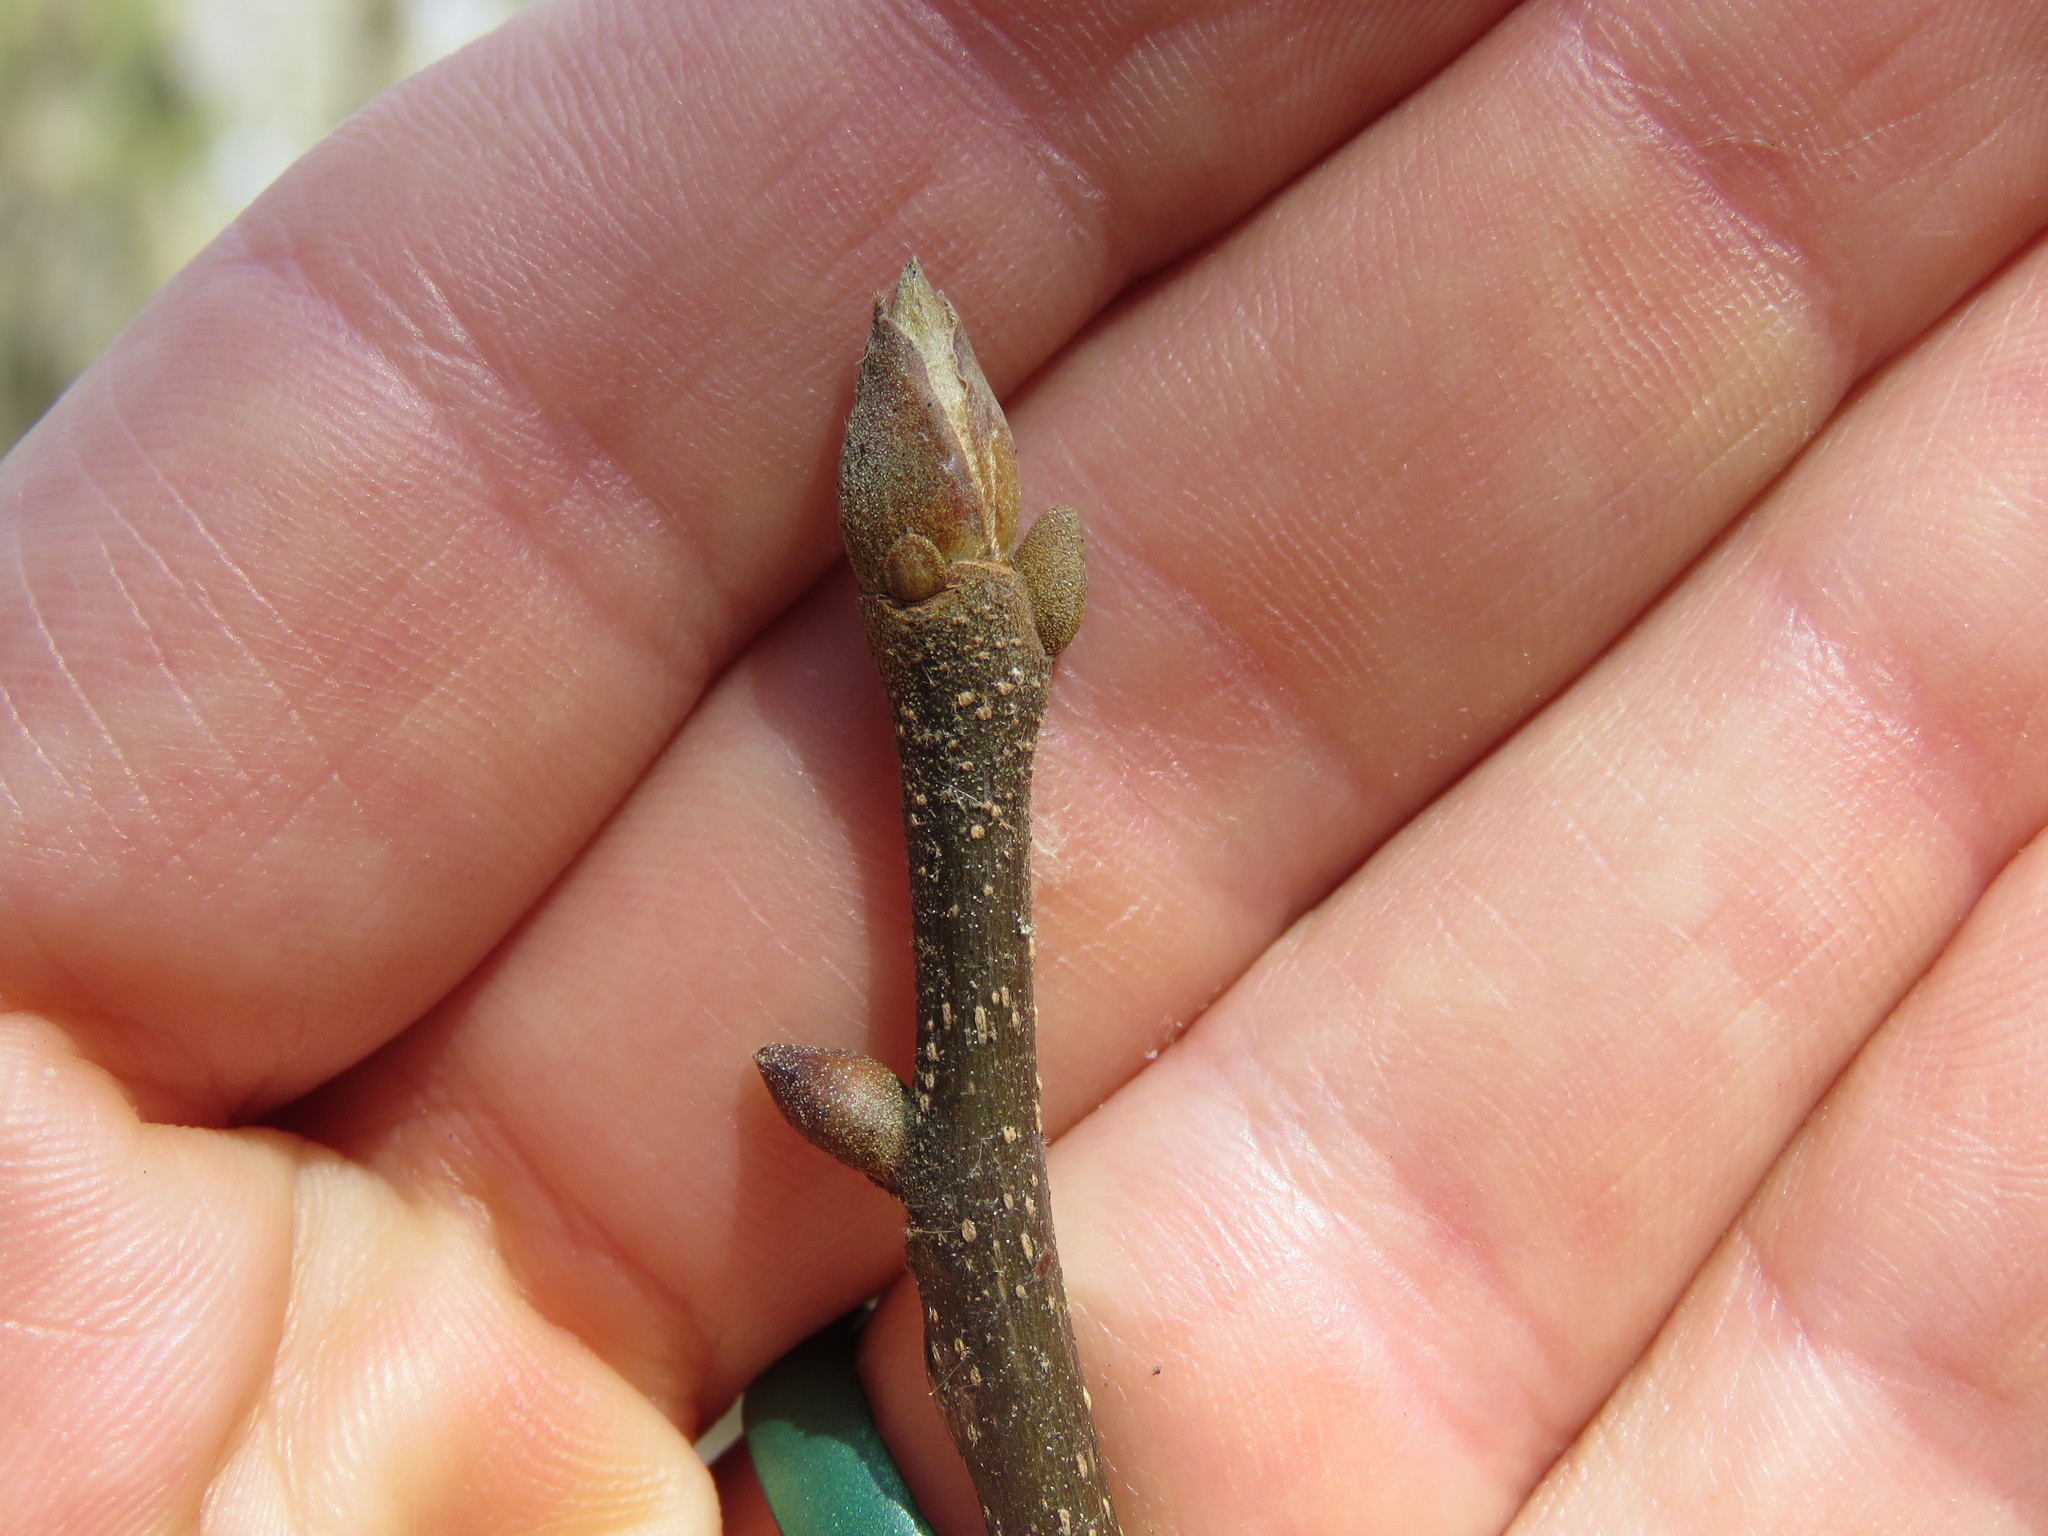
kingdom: Plantae
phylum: Tracheophyta
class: Magnoliopsida
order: Fagales
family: Juglandaceae
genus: Carya
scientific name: Carya texana
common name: Black hickory
